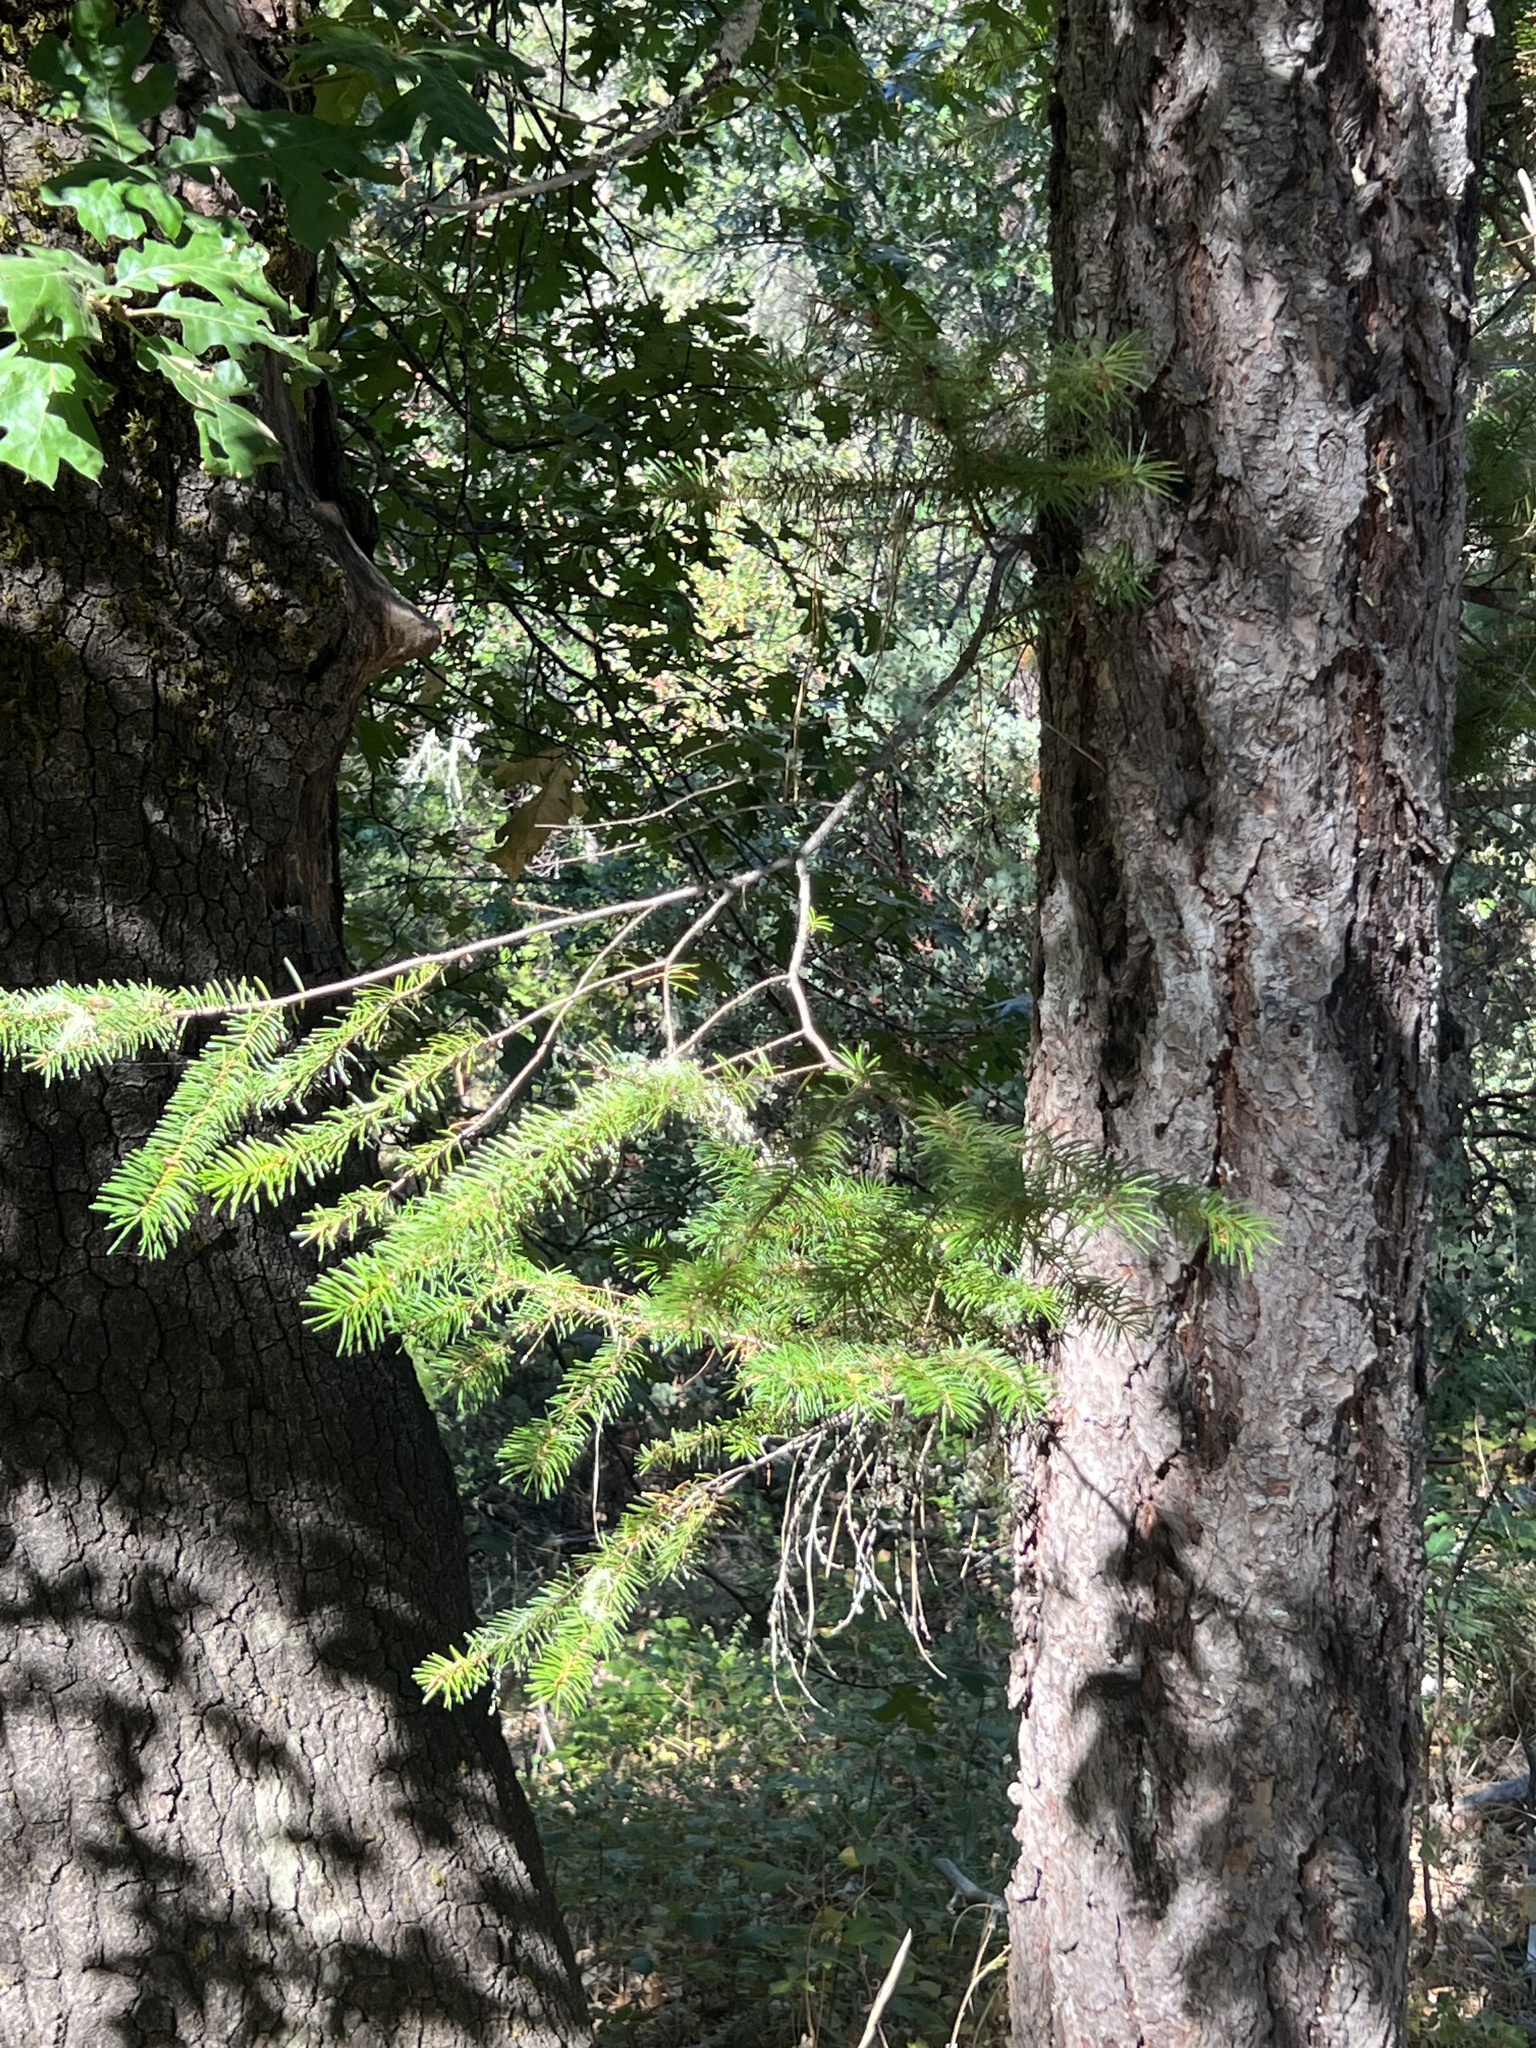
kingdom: Plantae
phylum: Tracheophyta
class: Pinopsida
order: Pinales
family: Pinaceae
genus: Pseudotsuga
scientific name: Pseudotsuga menziesii
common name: Douglas fir
